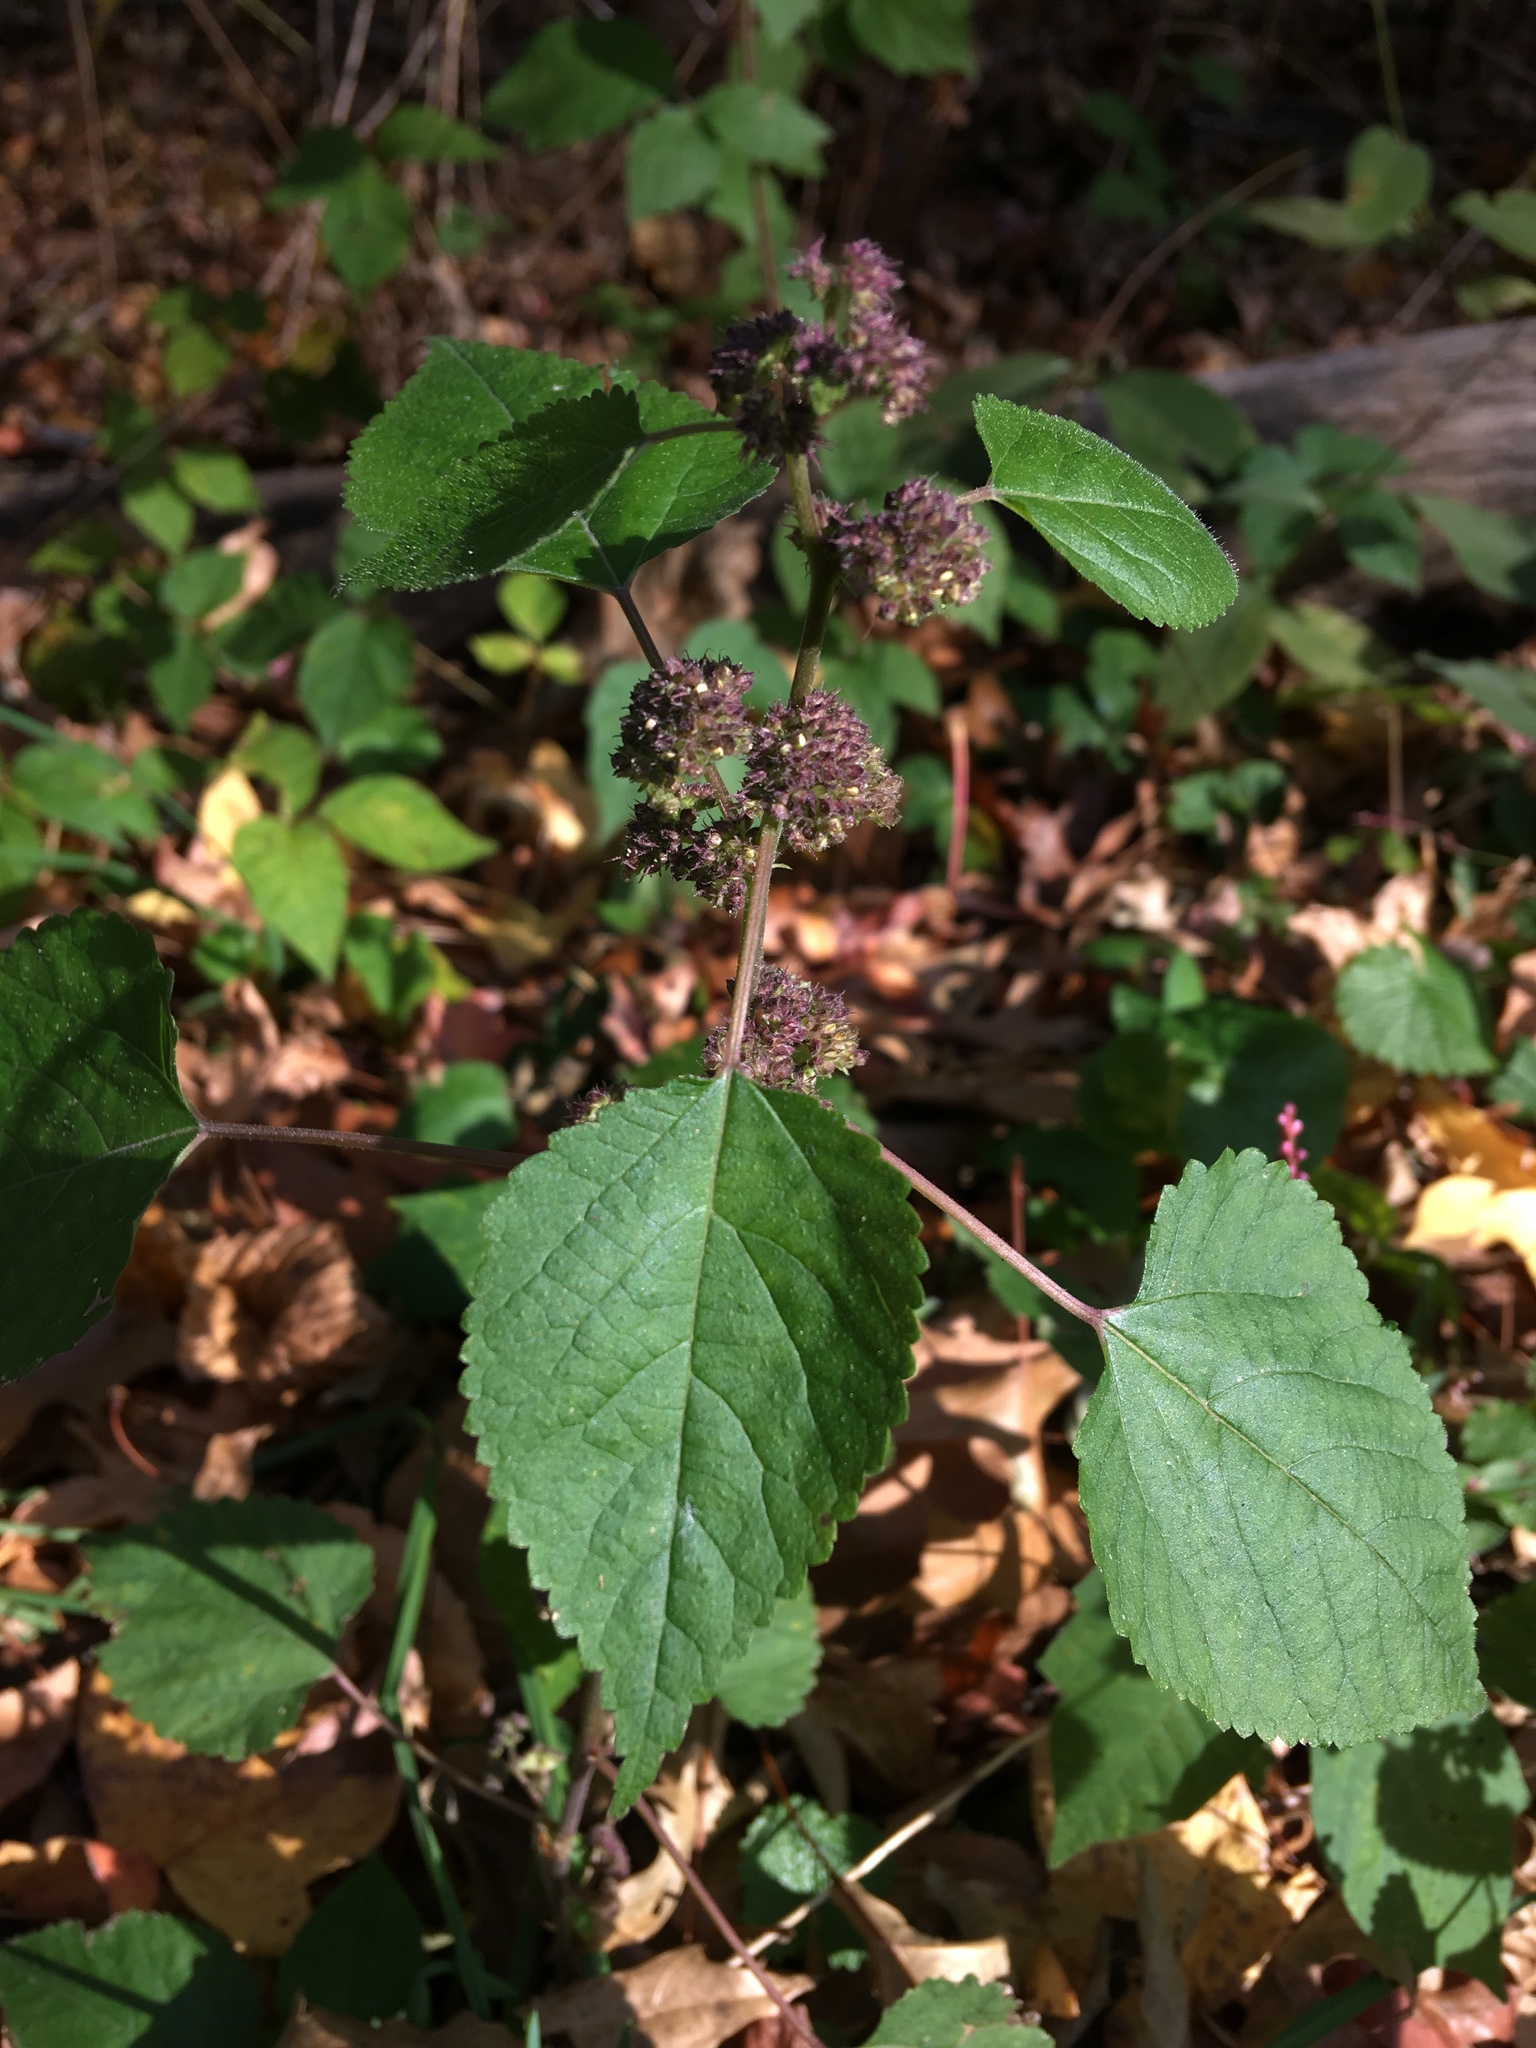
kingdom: Plantae
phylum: Tracheophyta
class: Magnoliopsida
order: Rosales
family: Moraceae
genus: Fatoua
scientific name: Fatoua villosa
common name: Hairy crabweed
